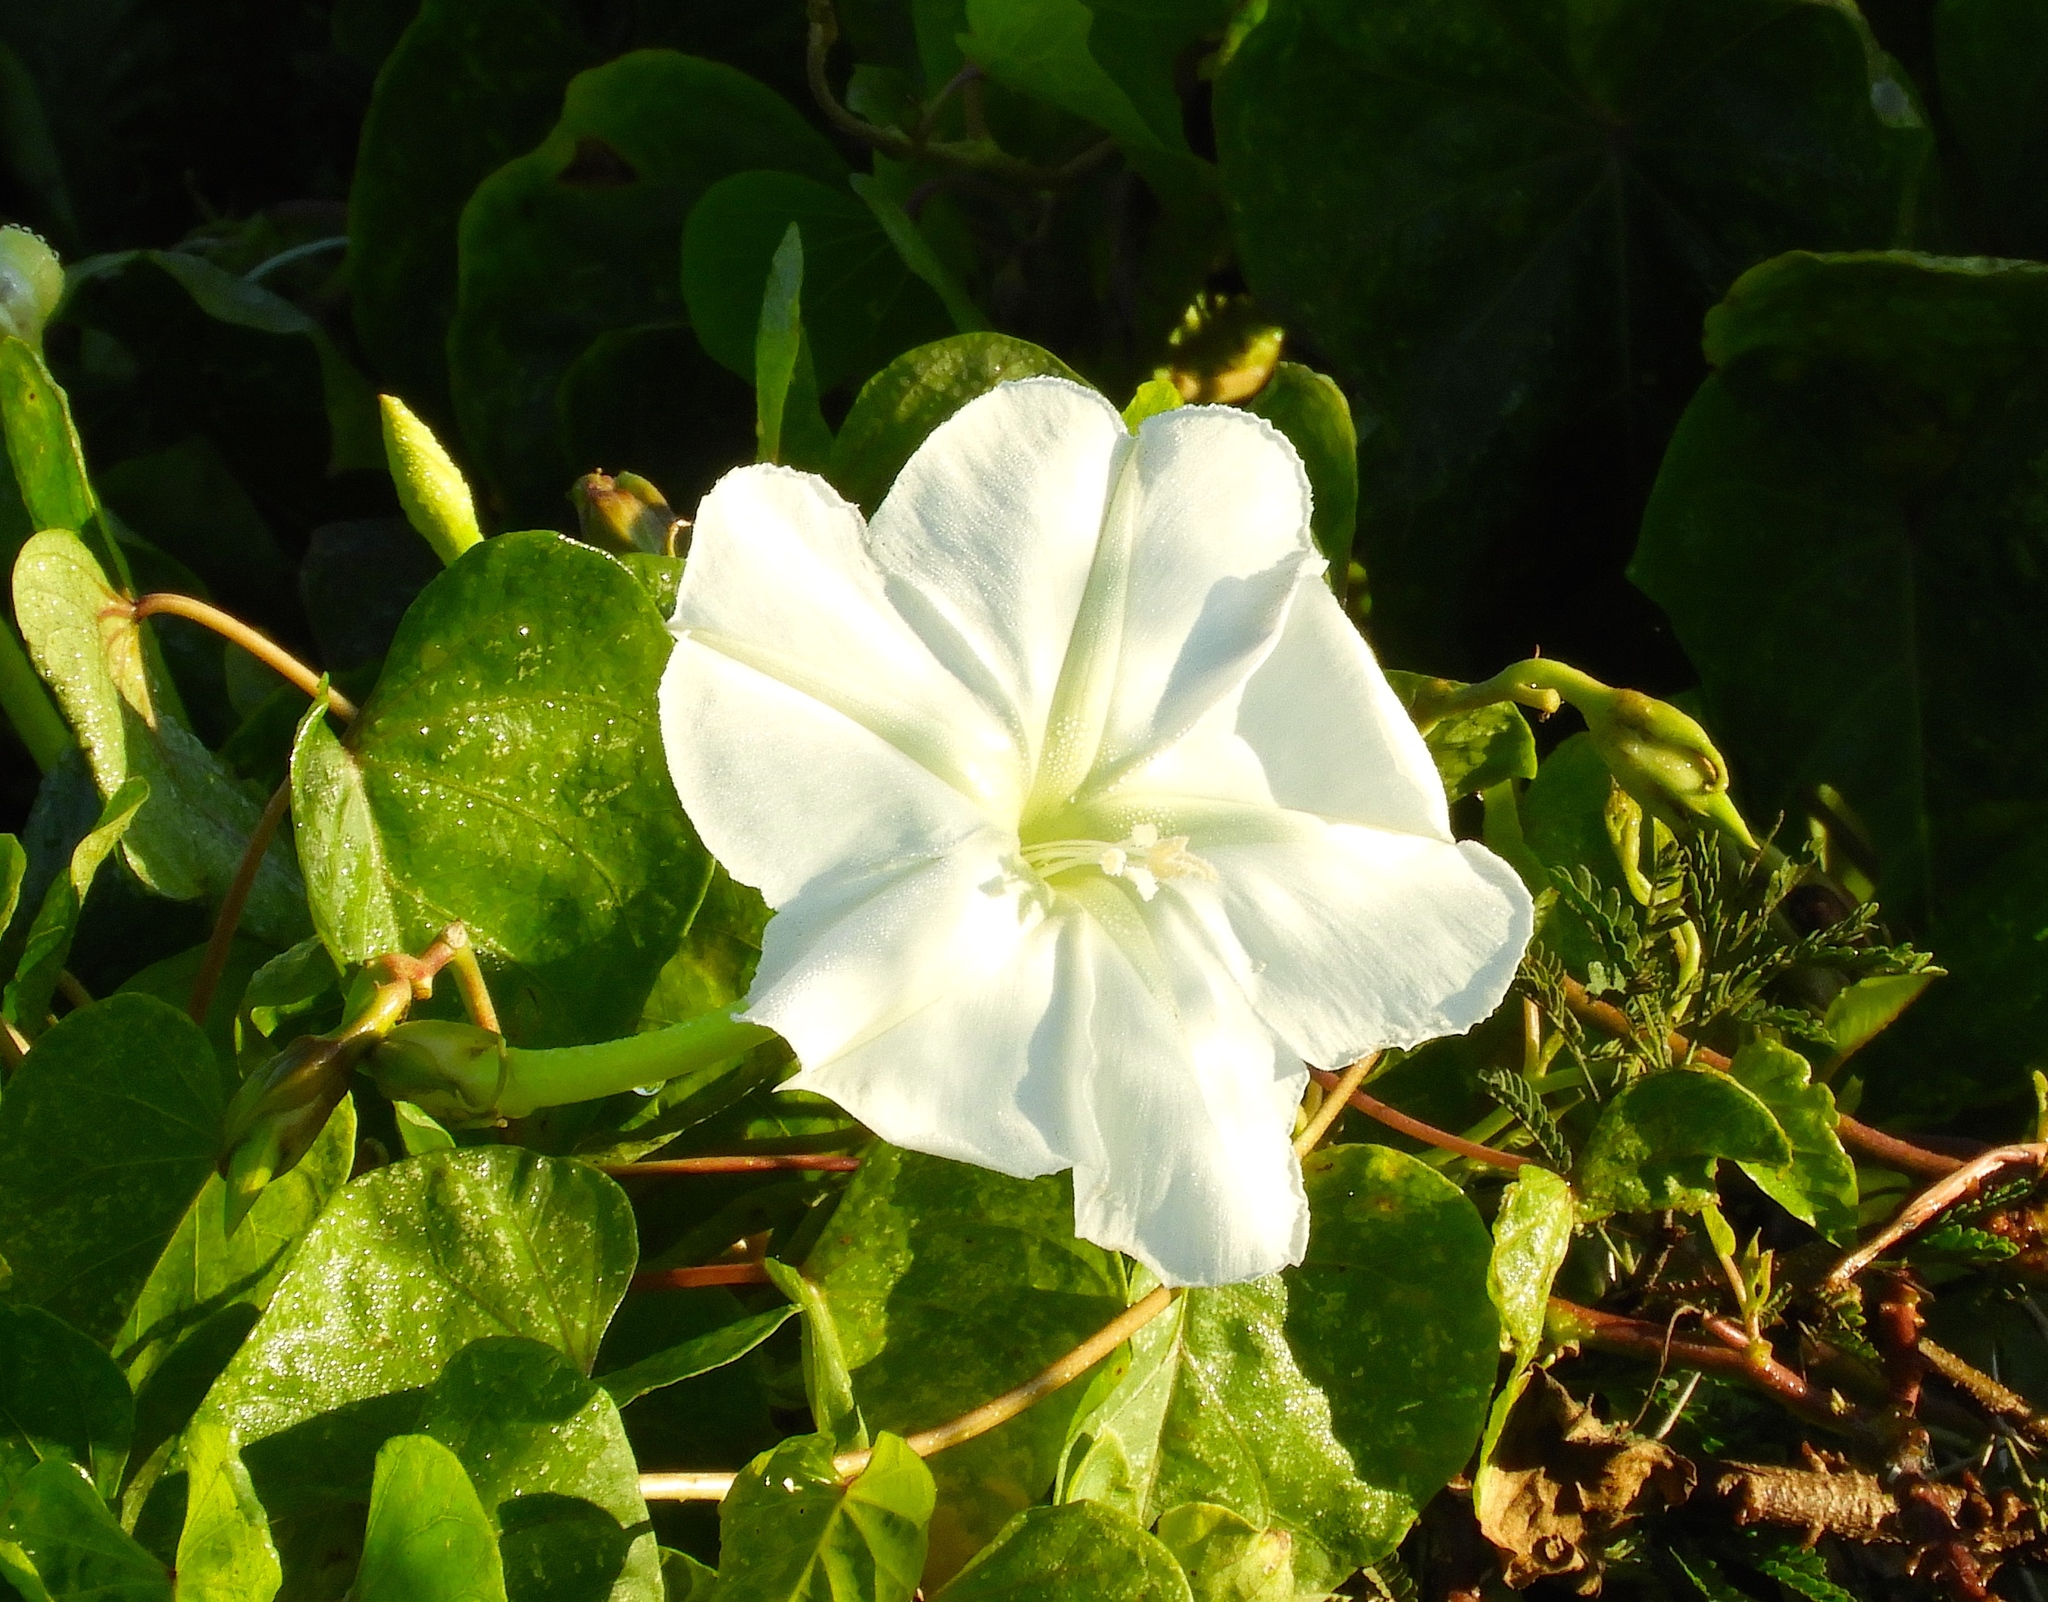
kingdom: Plantae
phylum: Tracheophyta
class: Magnoliopsida
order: Solanales
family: Convolvulaceae
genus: Ipomoea
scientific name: Ipomoea alba
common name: Moonflower
